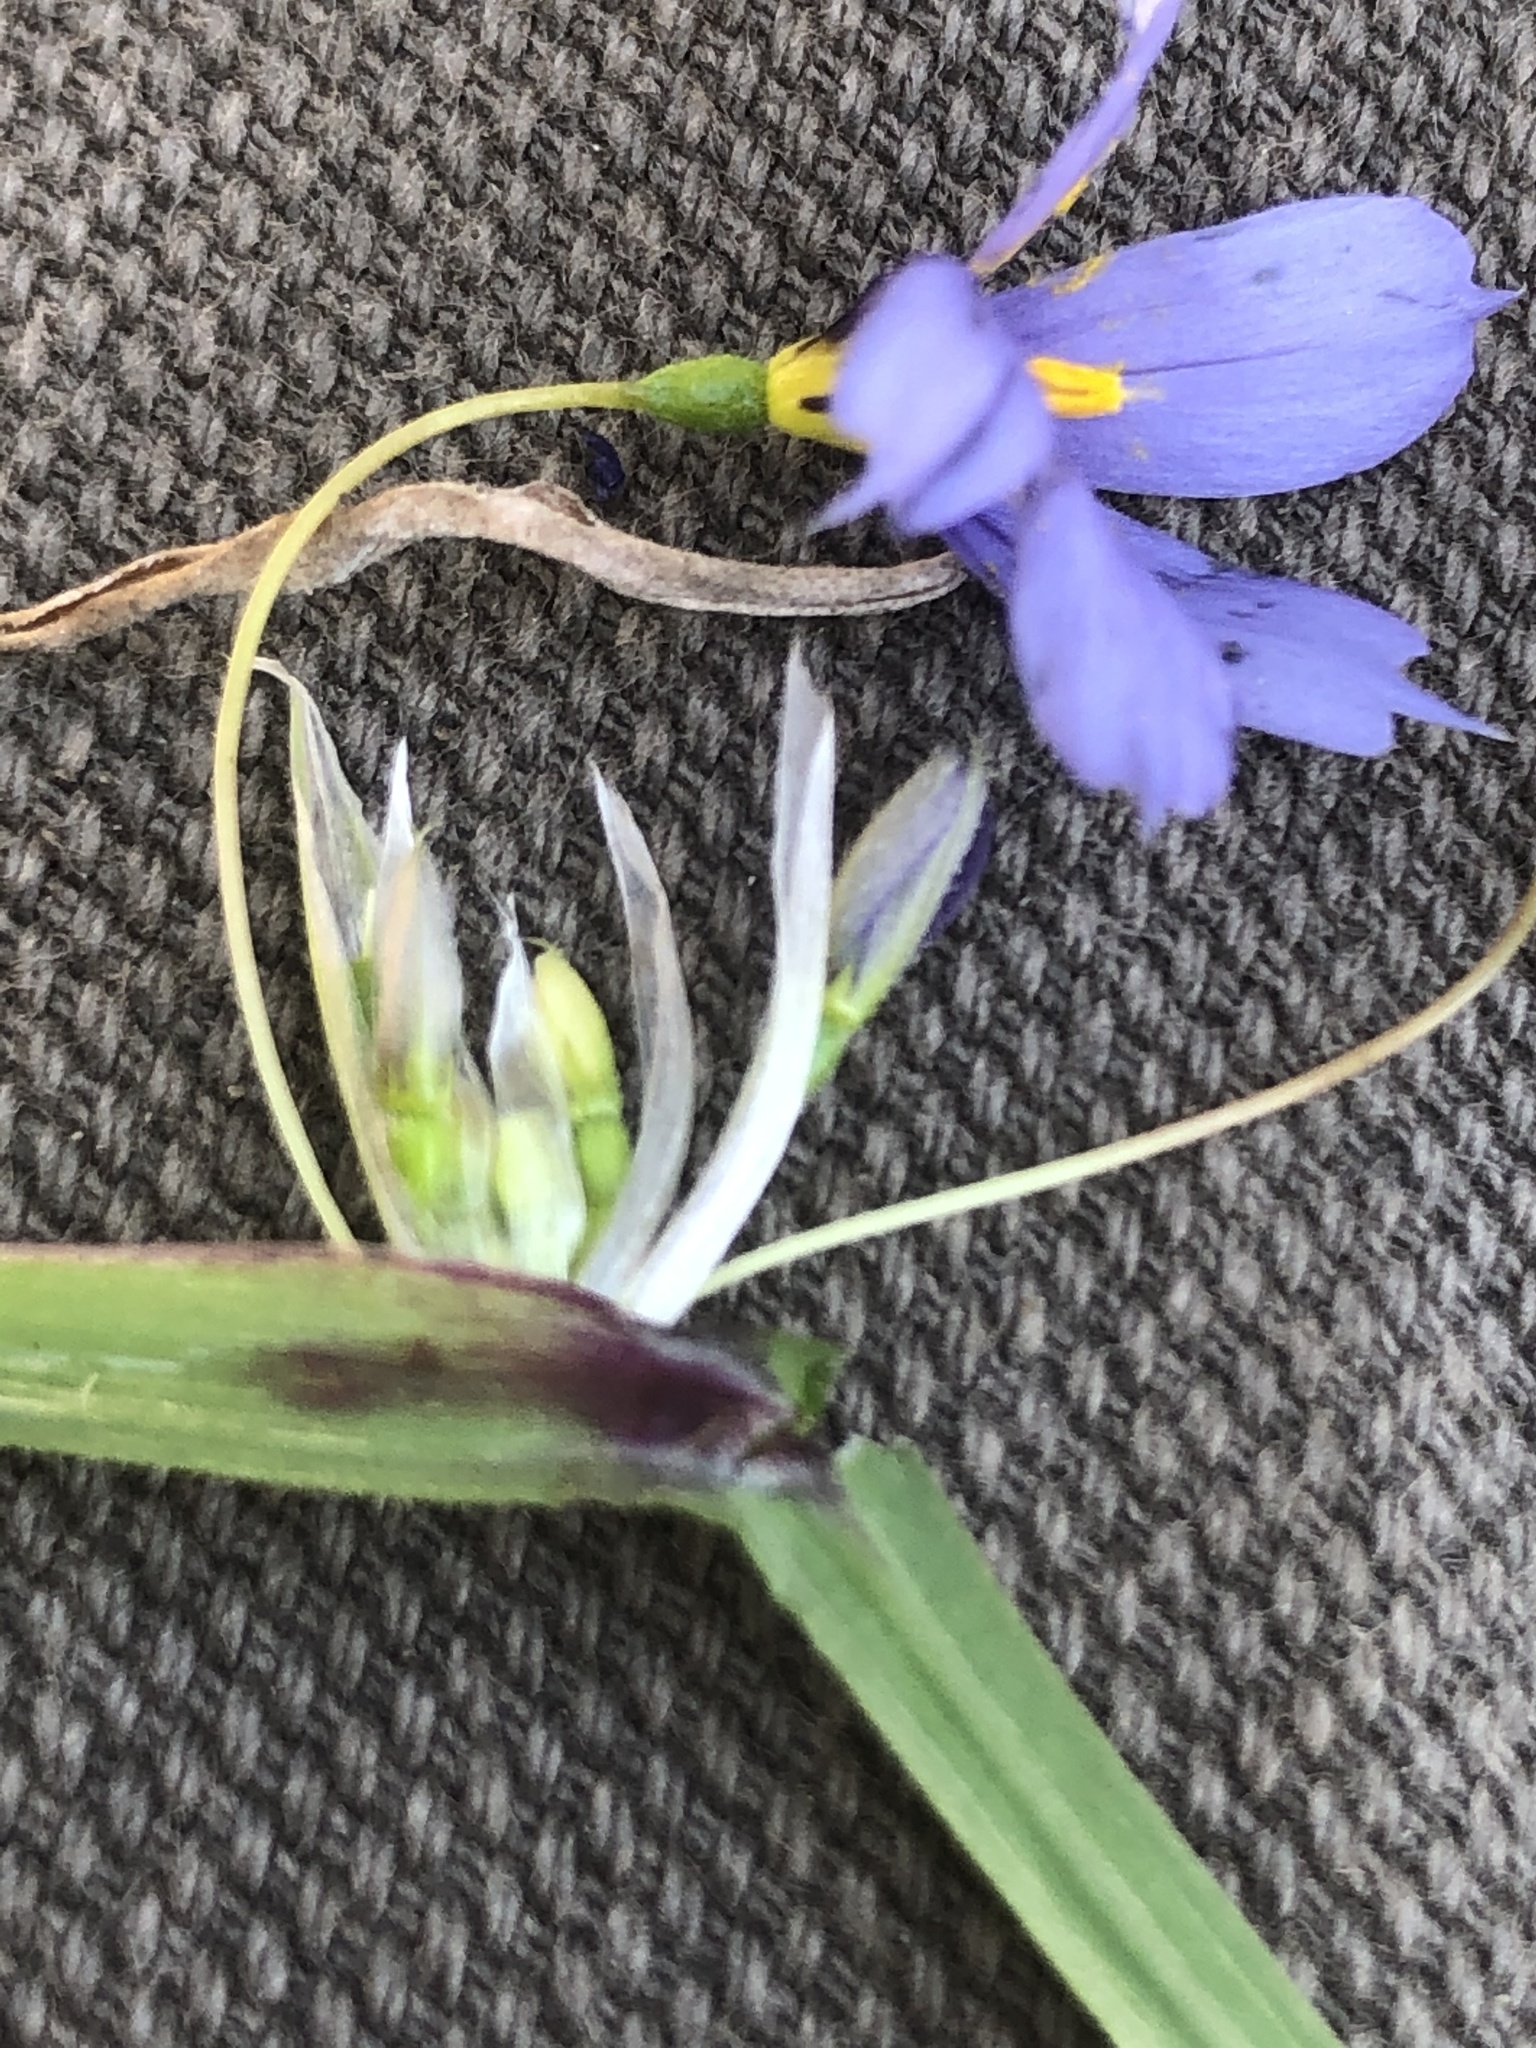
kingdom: Plantae
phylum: Tracheophyta
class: Liliopsida
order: Asparagales
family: Iridaceae
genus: Sisyrinchium
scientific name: Sisyrinchium mucronatum
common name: Eastern blue-eyed-grass
